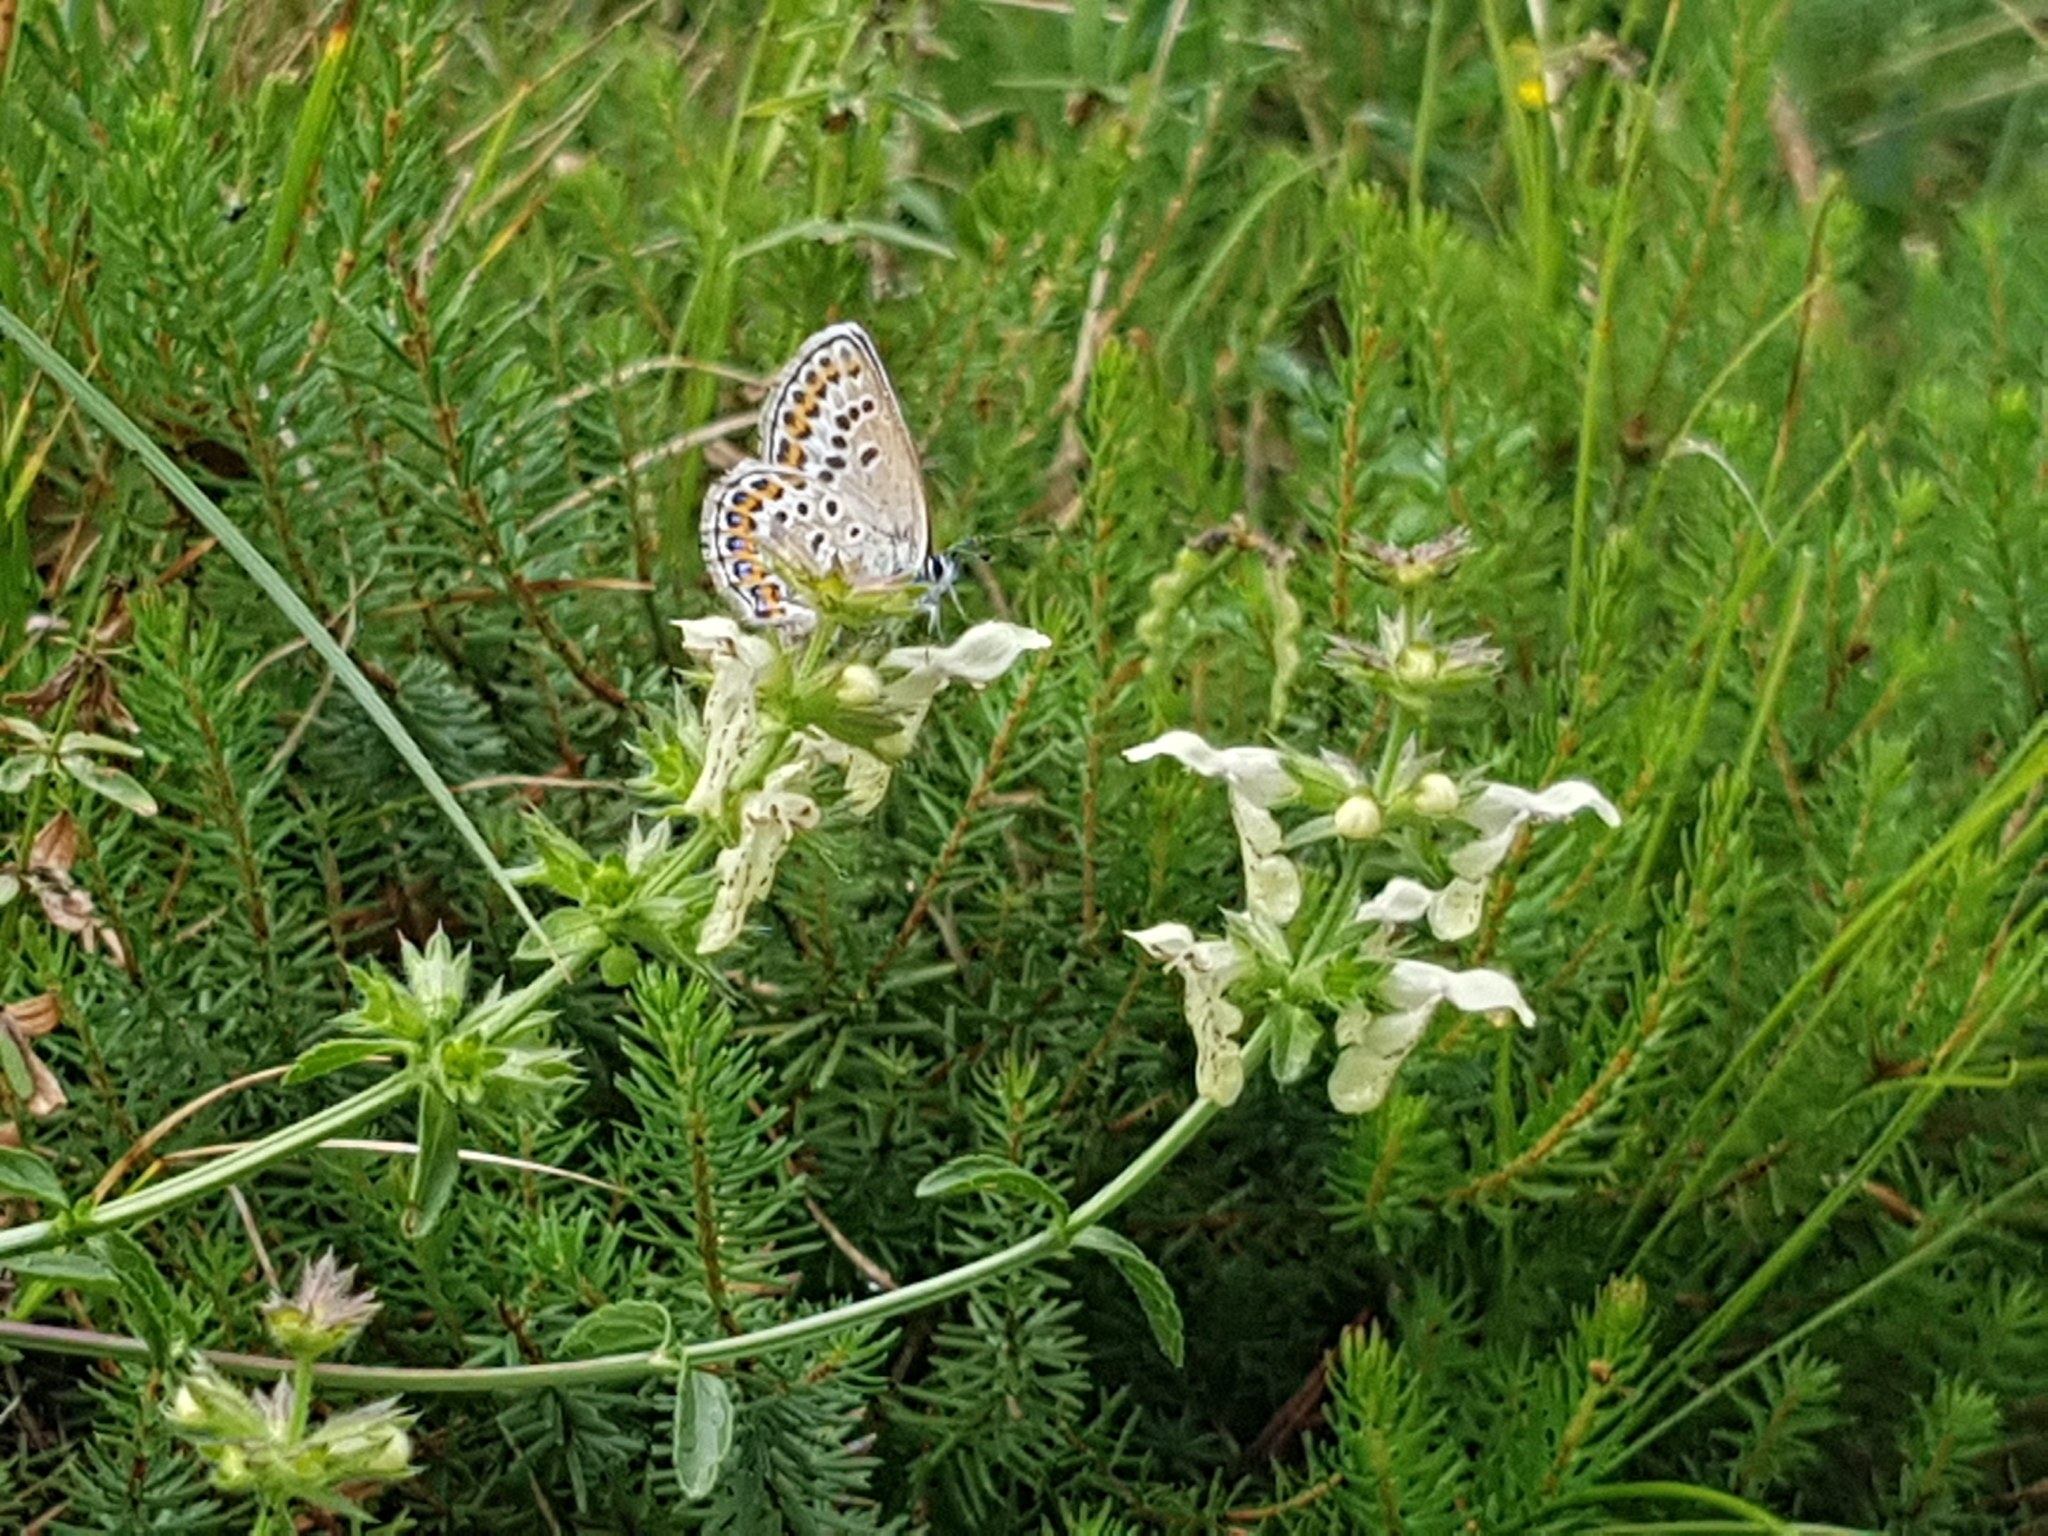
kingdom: Plantae
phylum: Tracheophyta
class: Magnoliopsida
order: Lamiales
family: Lamiaceae
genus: Stachys
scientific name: Stachys recta
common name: Perennial yellow-woundwort
